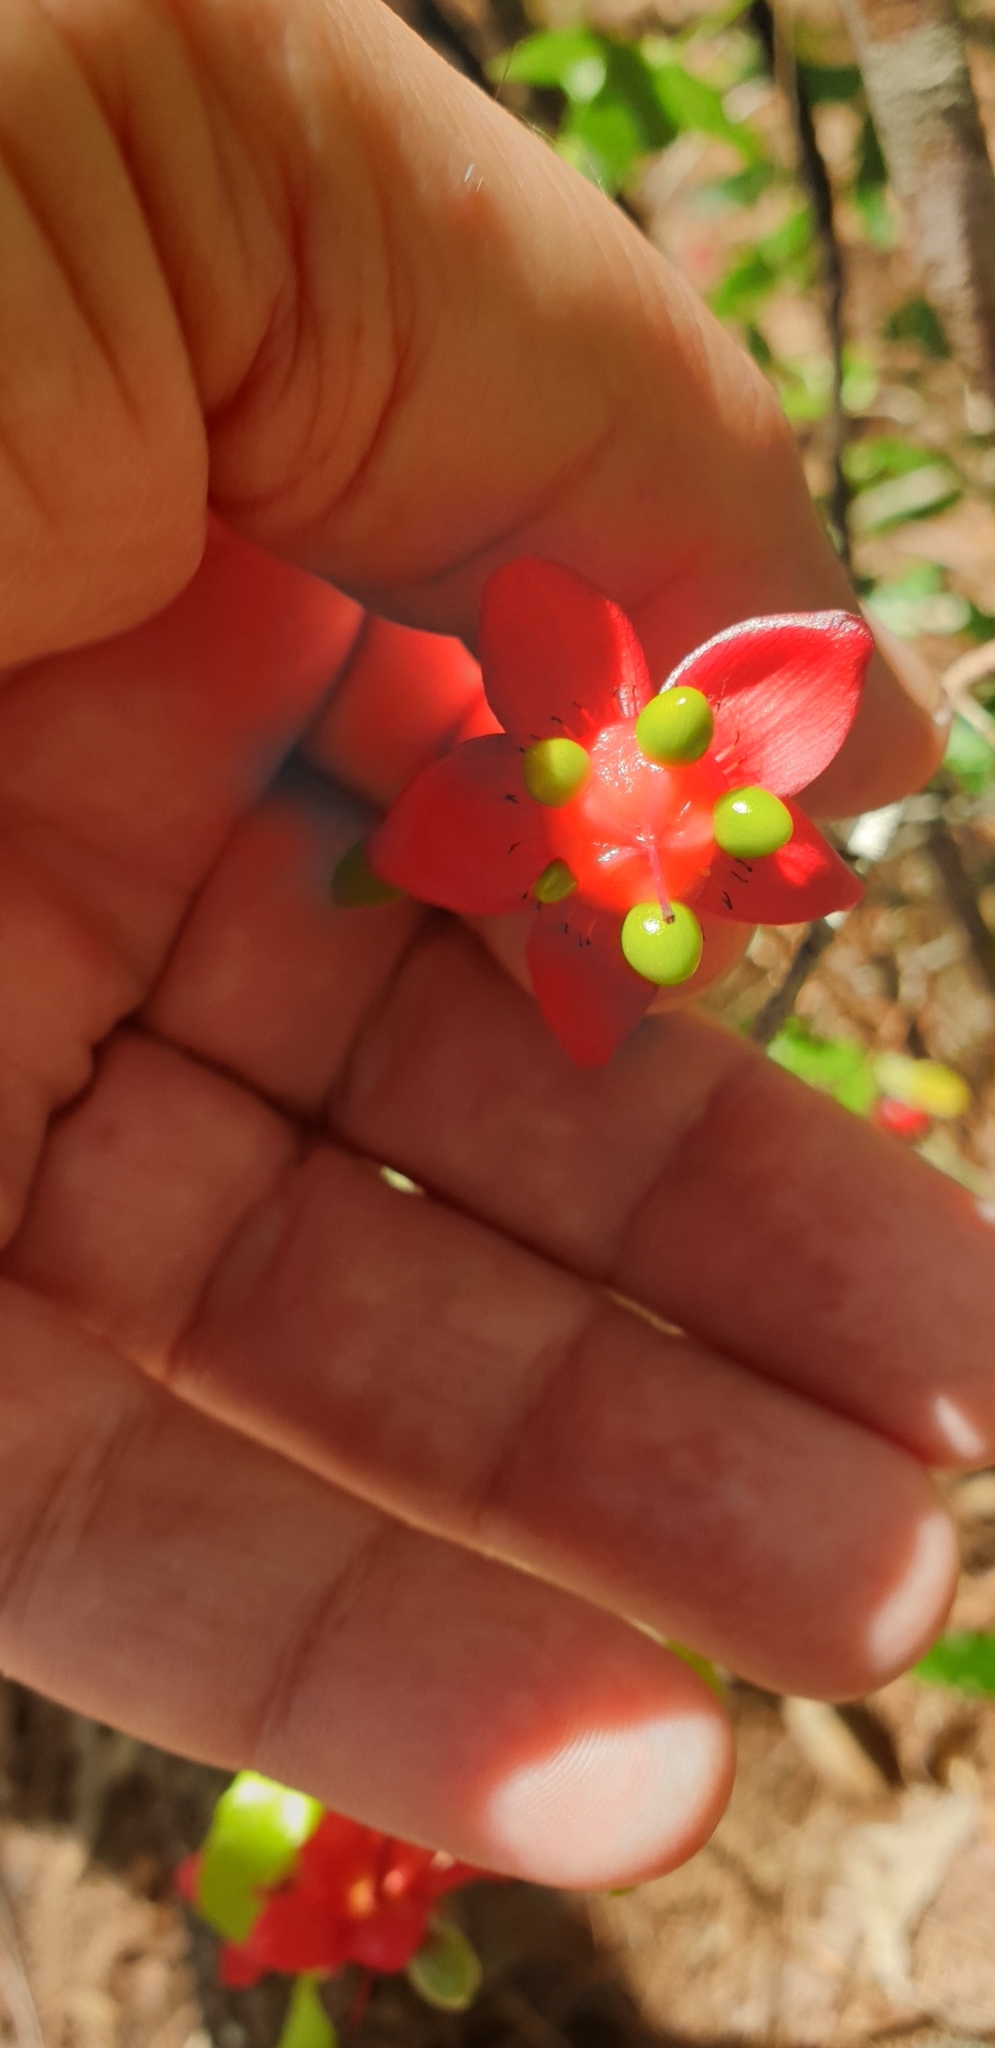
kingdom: Plantae
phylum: Tracheophyta
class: Magnoliopsida
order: Malpighiales
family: Ochnaceae
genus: Ochna
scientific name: Ochna serrulata
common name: Mickey mouse plant
